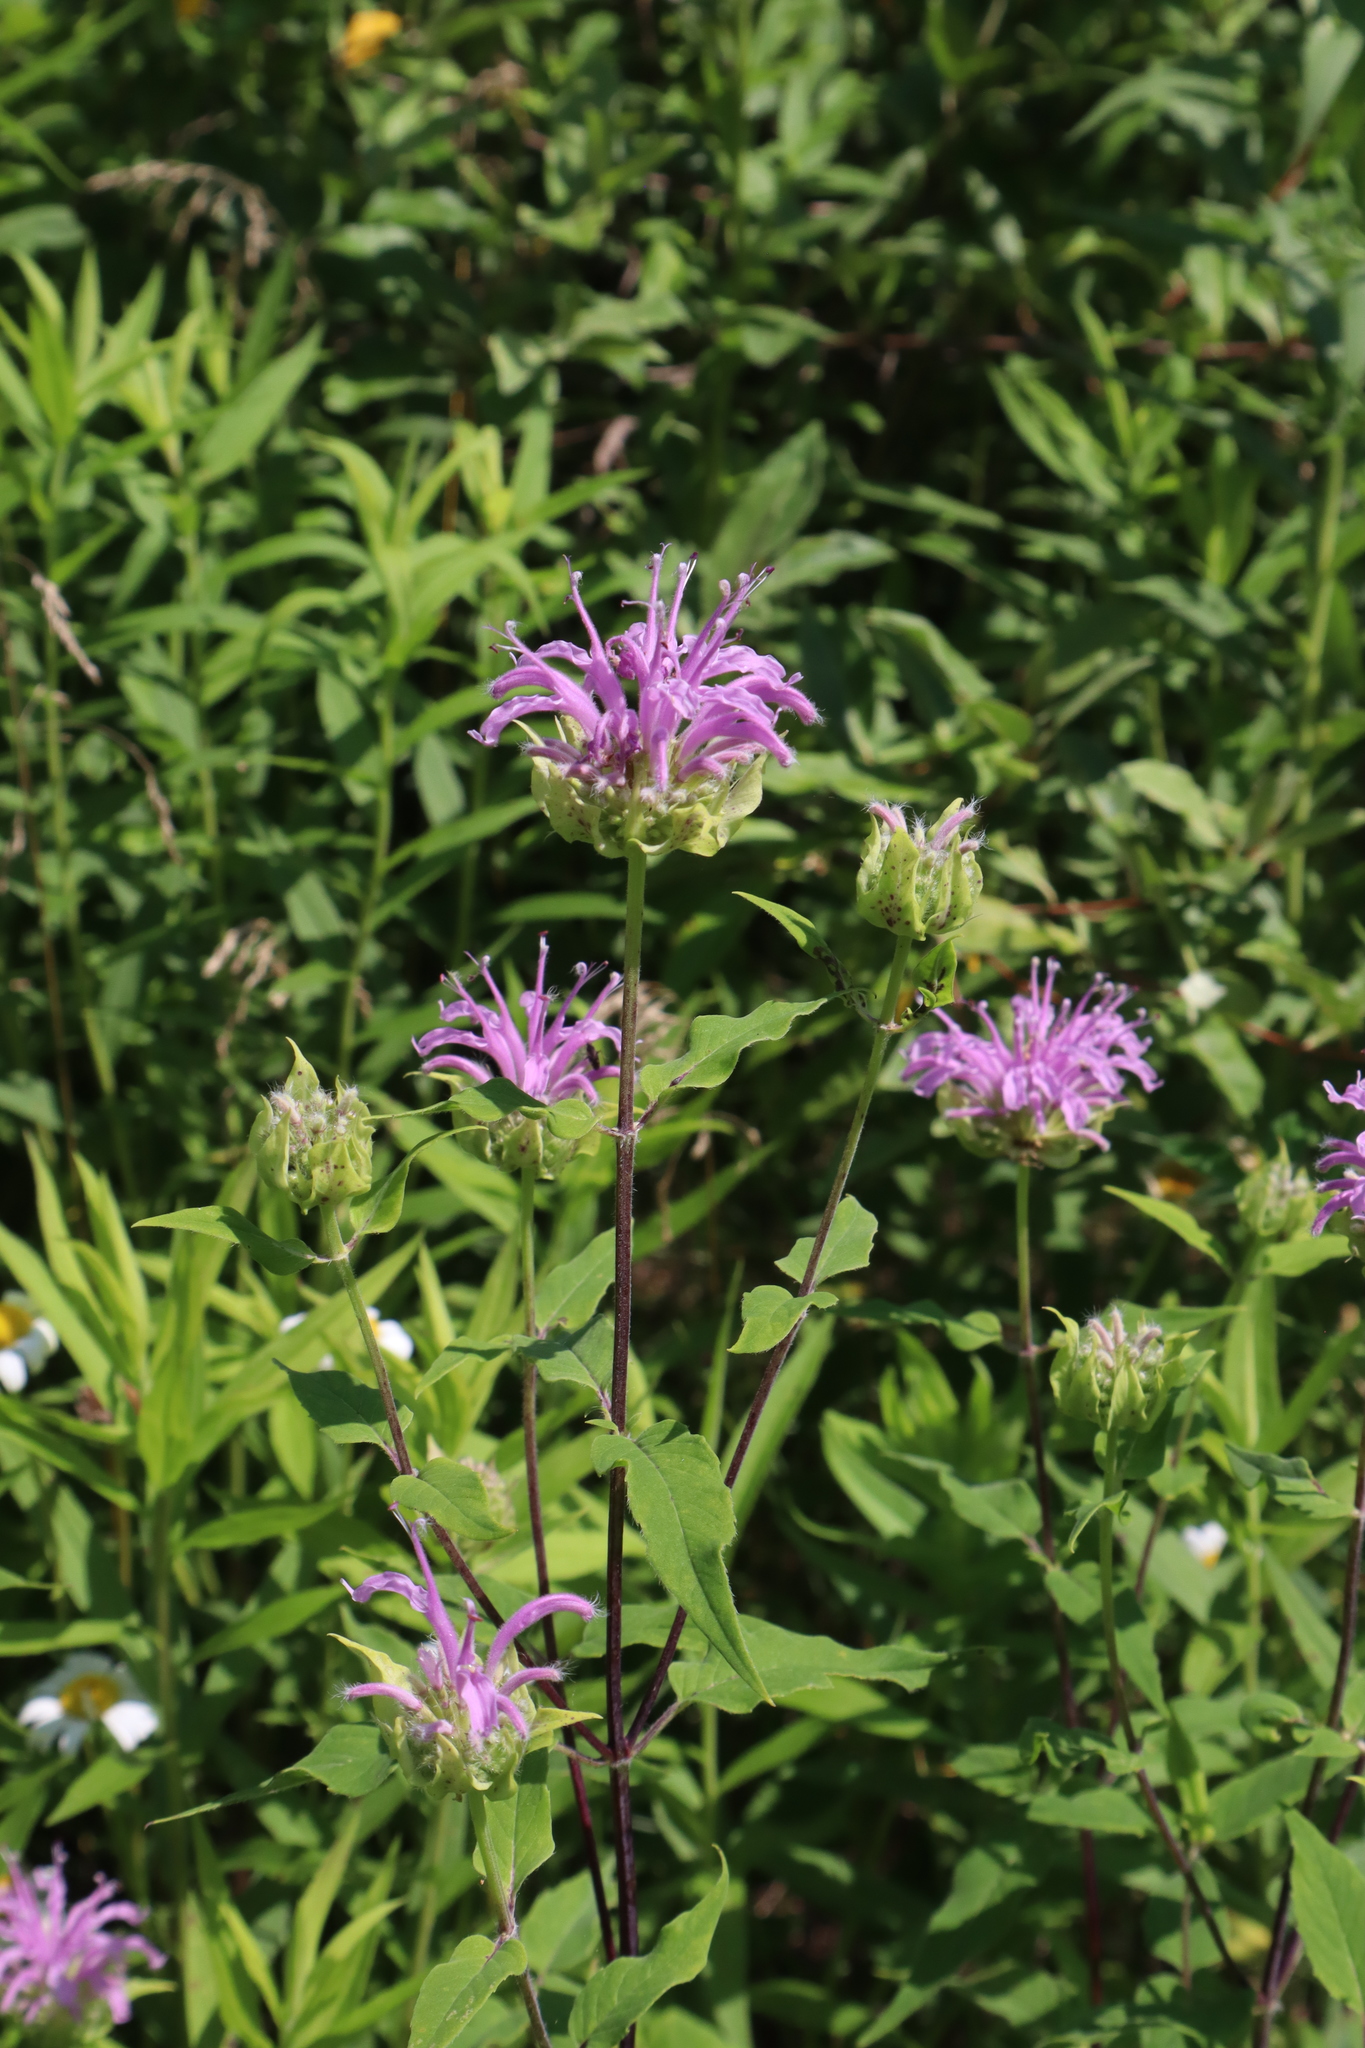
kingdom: Plantae
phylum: Tracheophyta
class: Magnoliopsida
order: Lamiales
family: Lamiaceae
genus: Monarda
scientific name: Monarda fistulosa
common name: Purple beebalm
